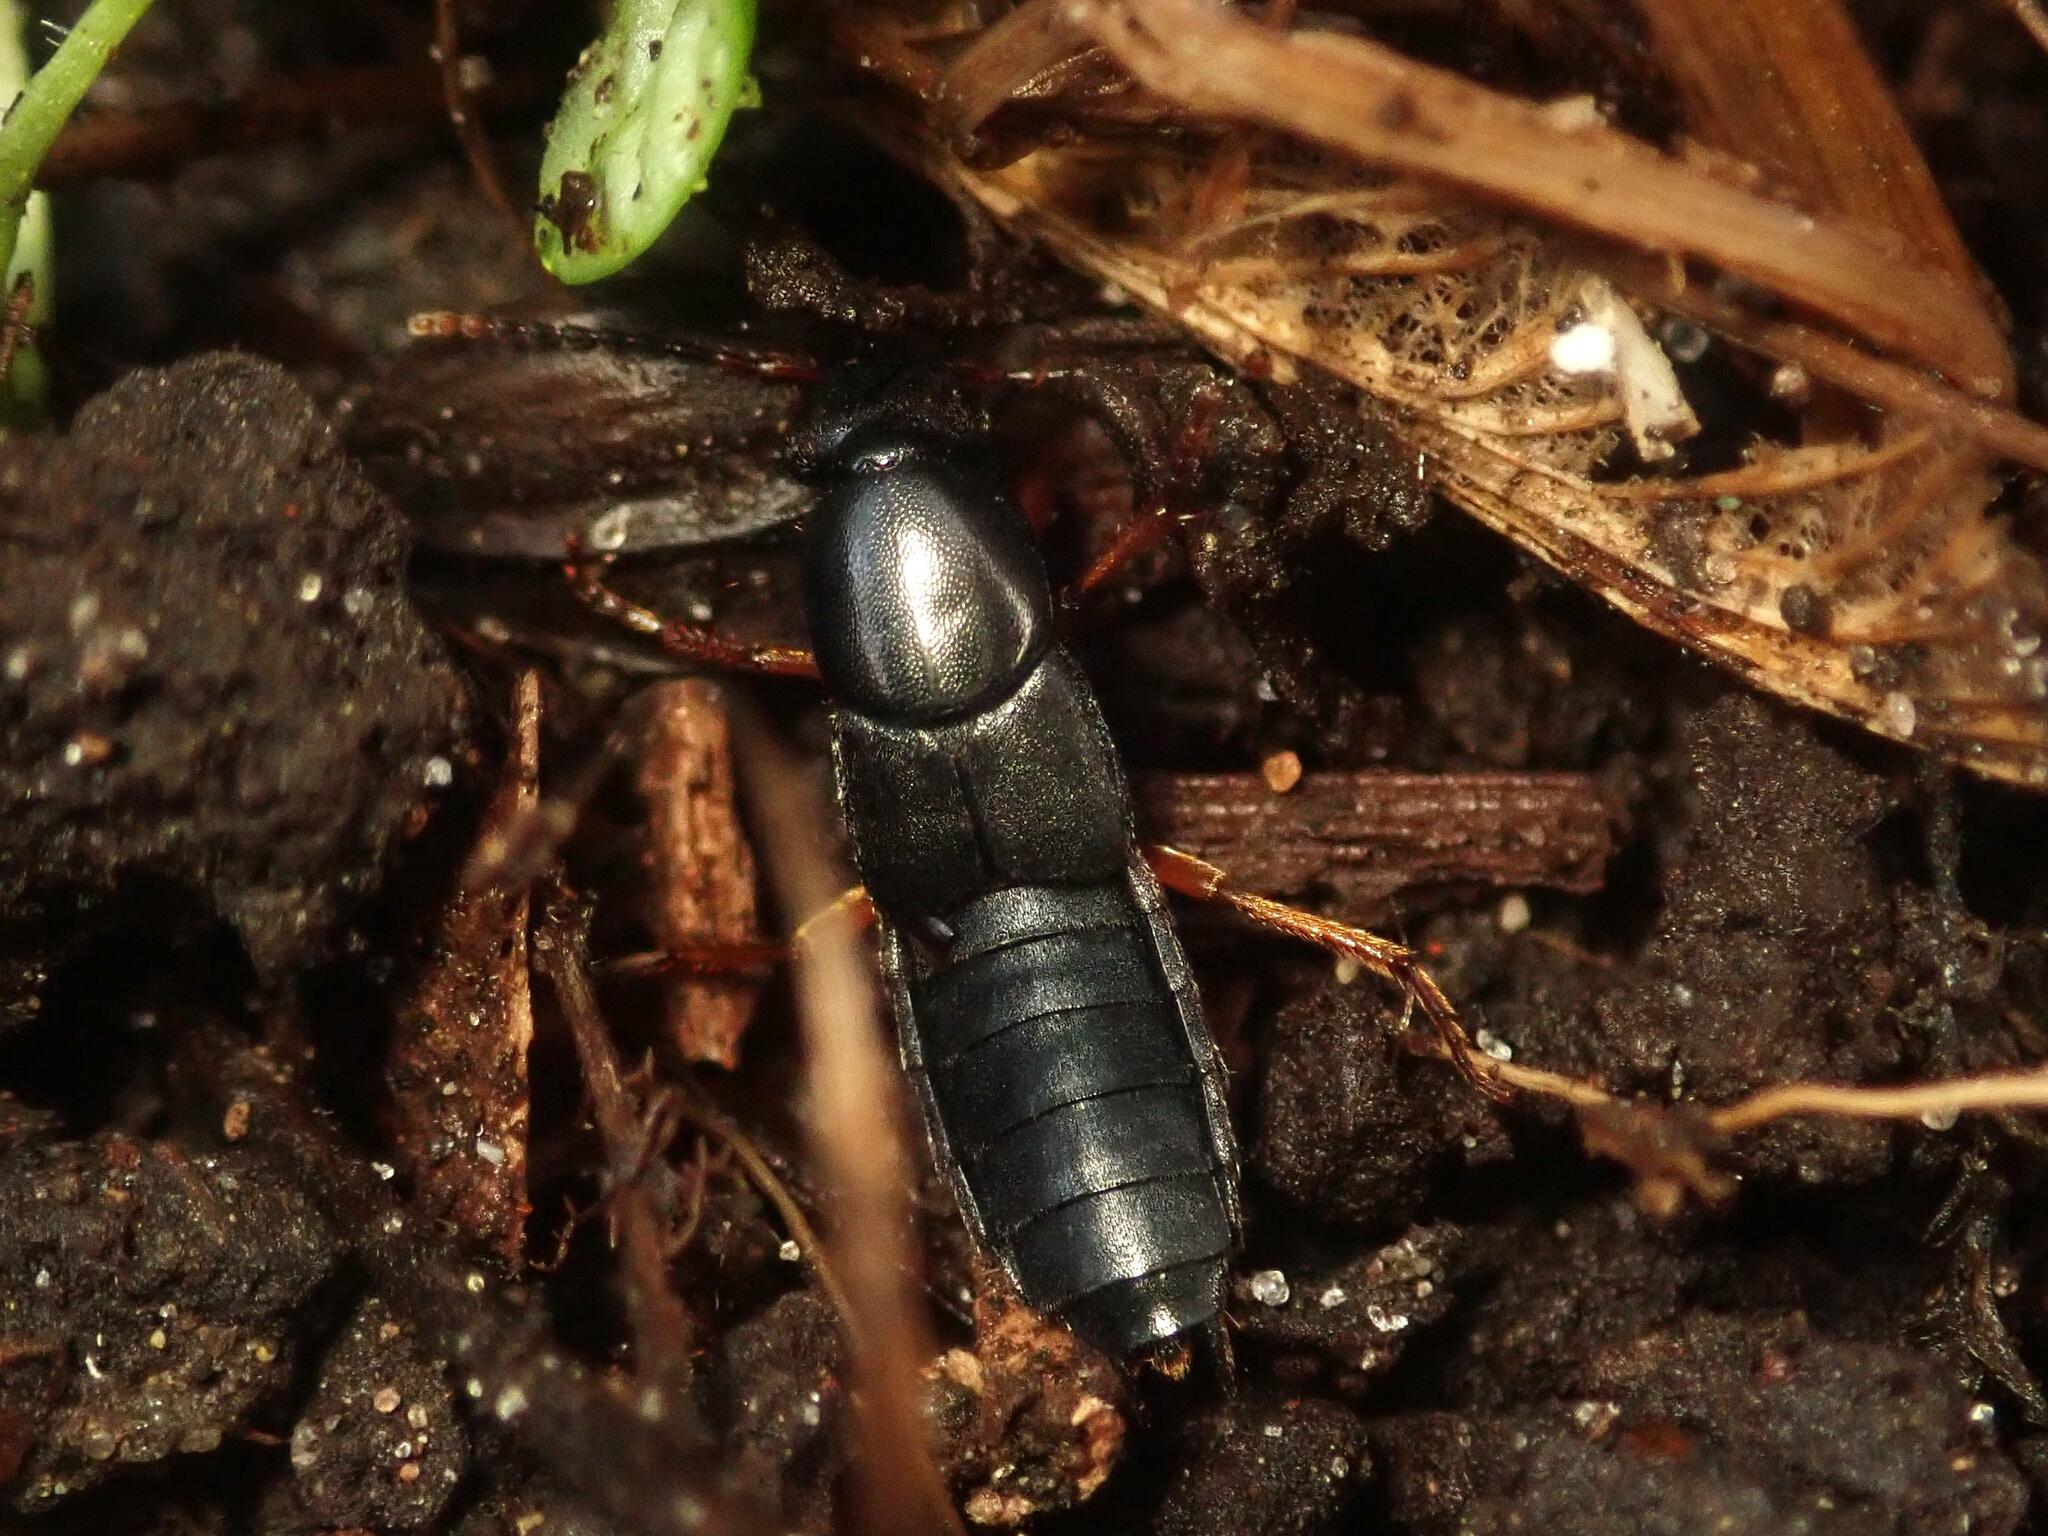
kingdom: Animalia
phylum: Arthropoda
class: Insecta
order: Coleoptera
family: Staphylinidae
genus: Ocypus
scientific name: Ocypus brunnipes
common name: Rove beetle
